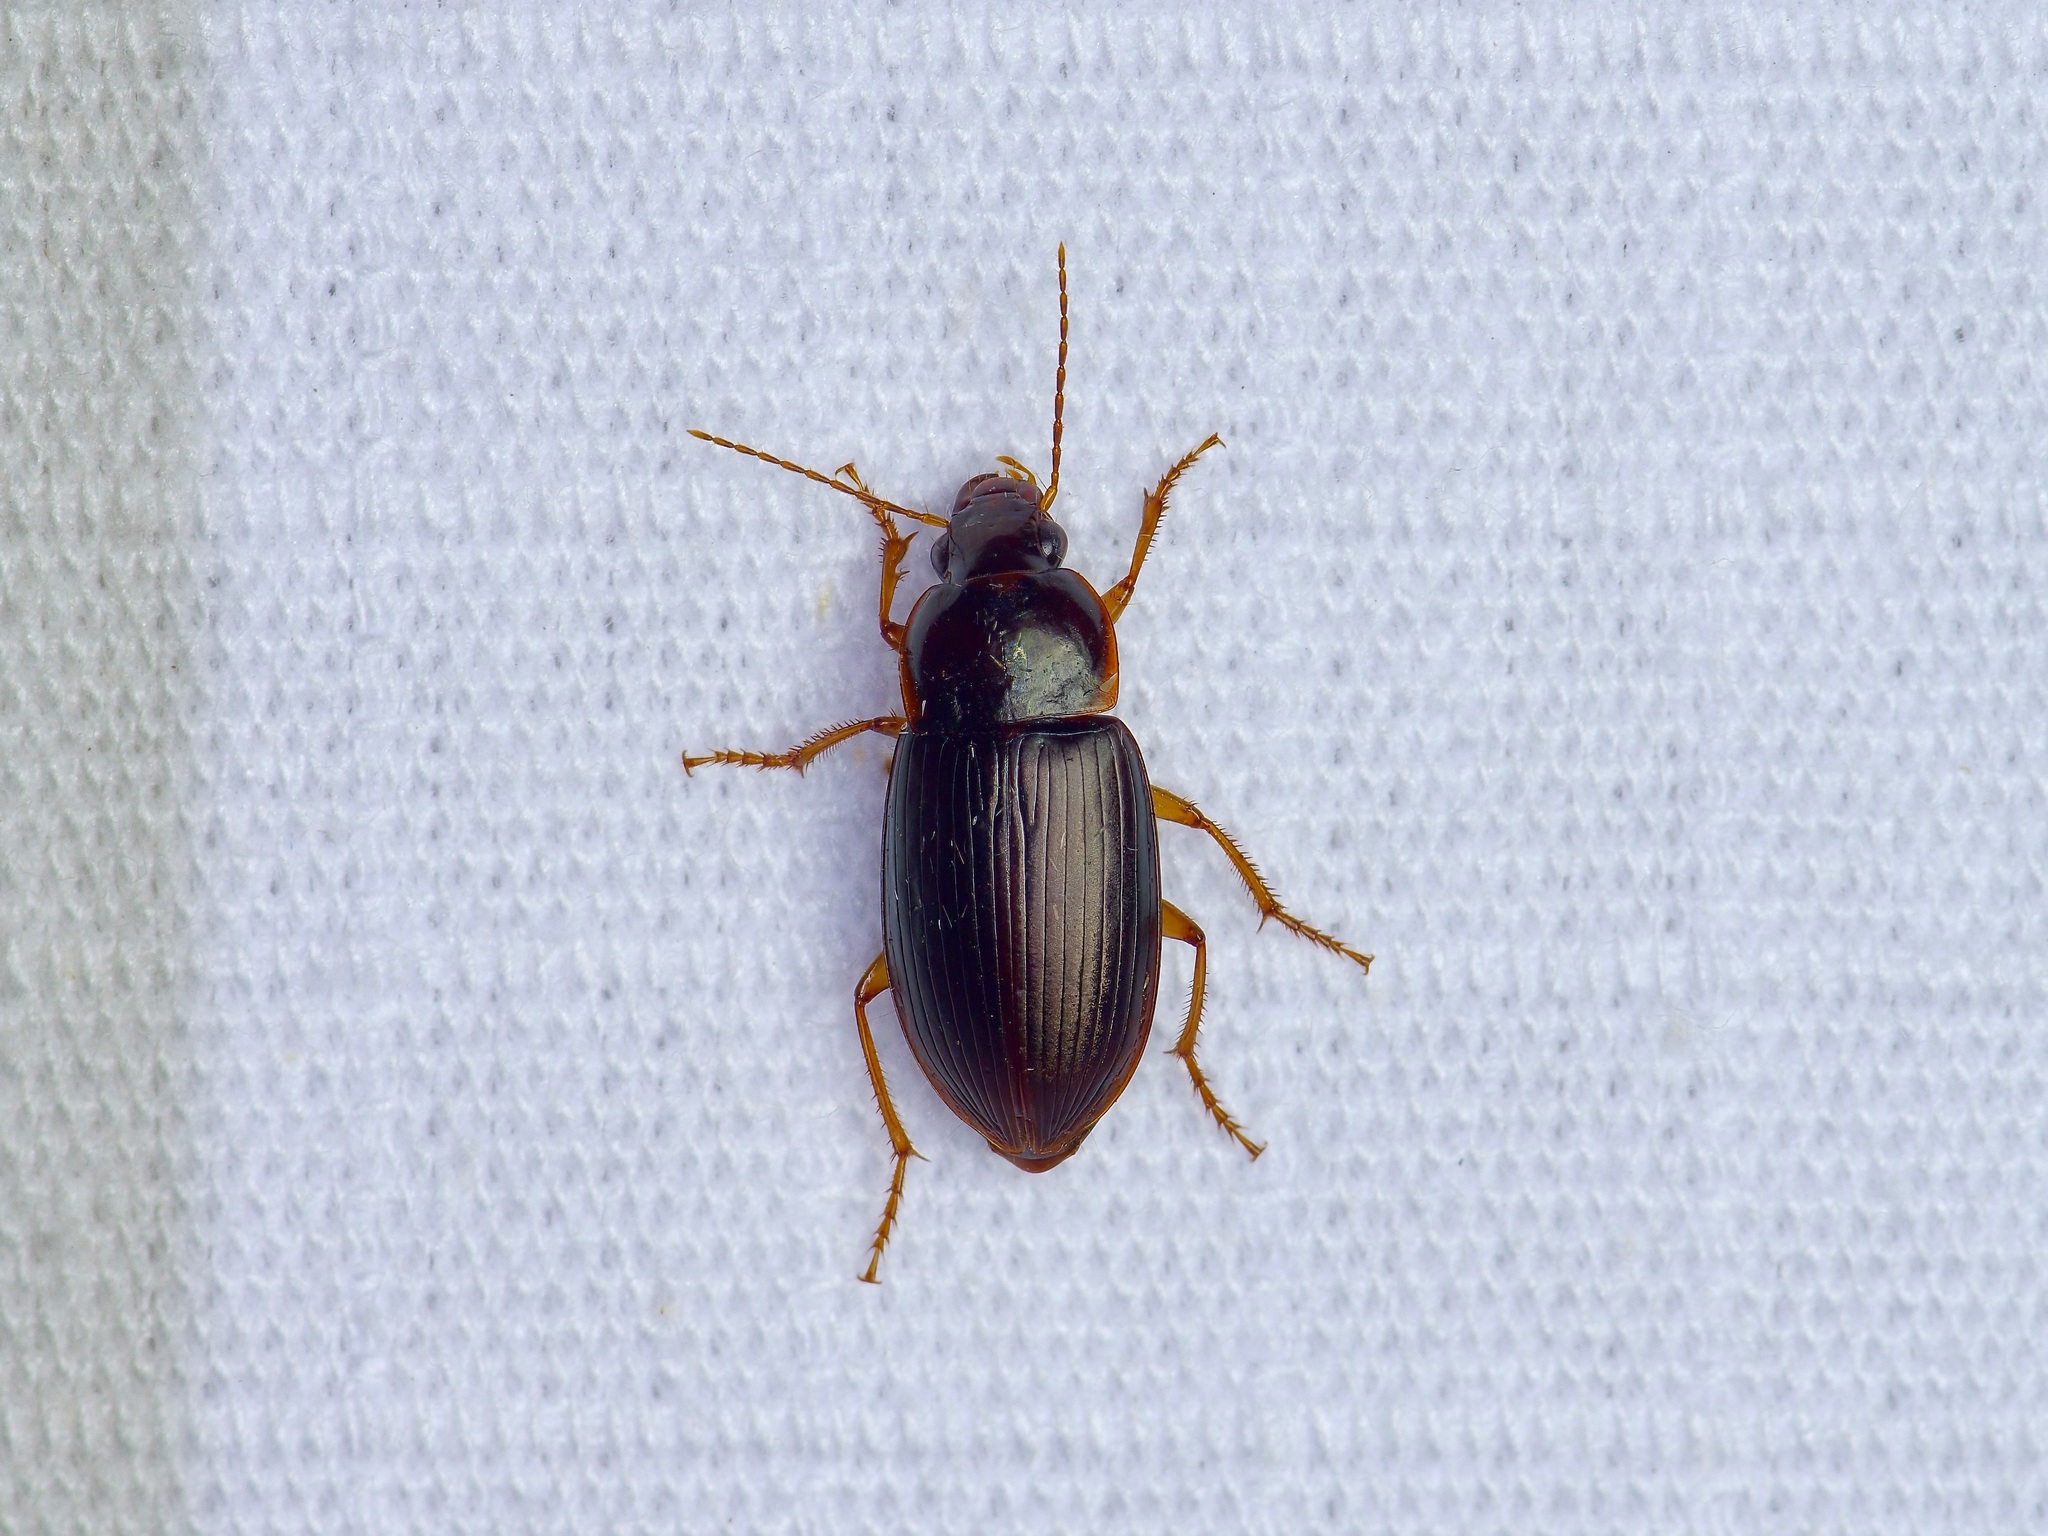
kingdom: Animalia
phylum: Arthropoda
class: Insecta
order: Coleoptera
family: Carabidae
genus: Notiobia
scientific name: Notiobia terminata
